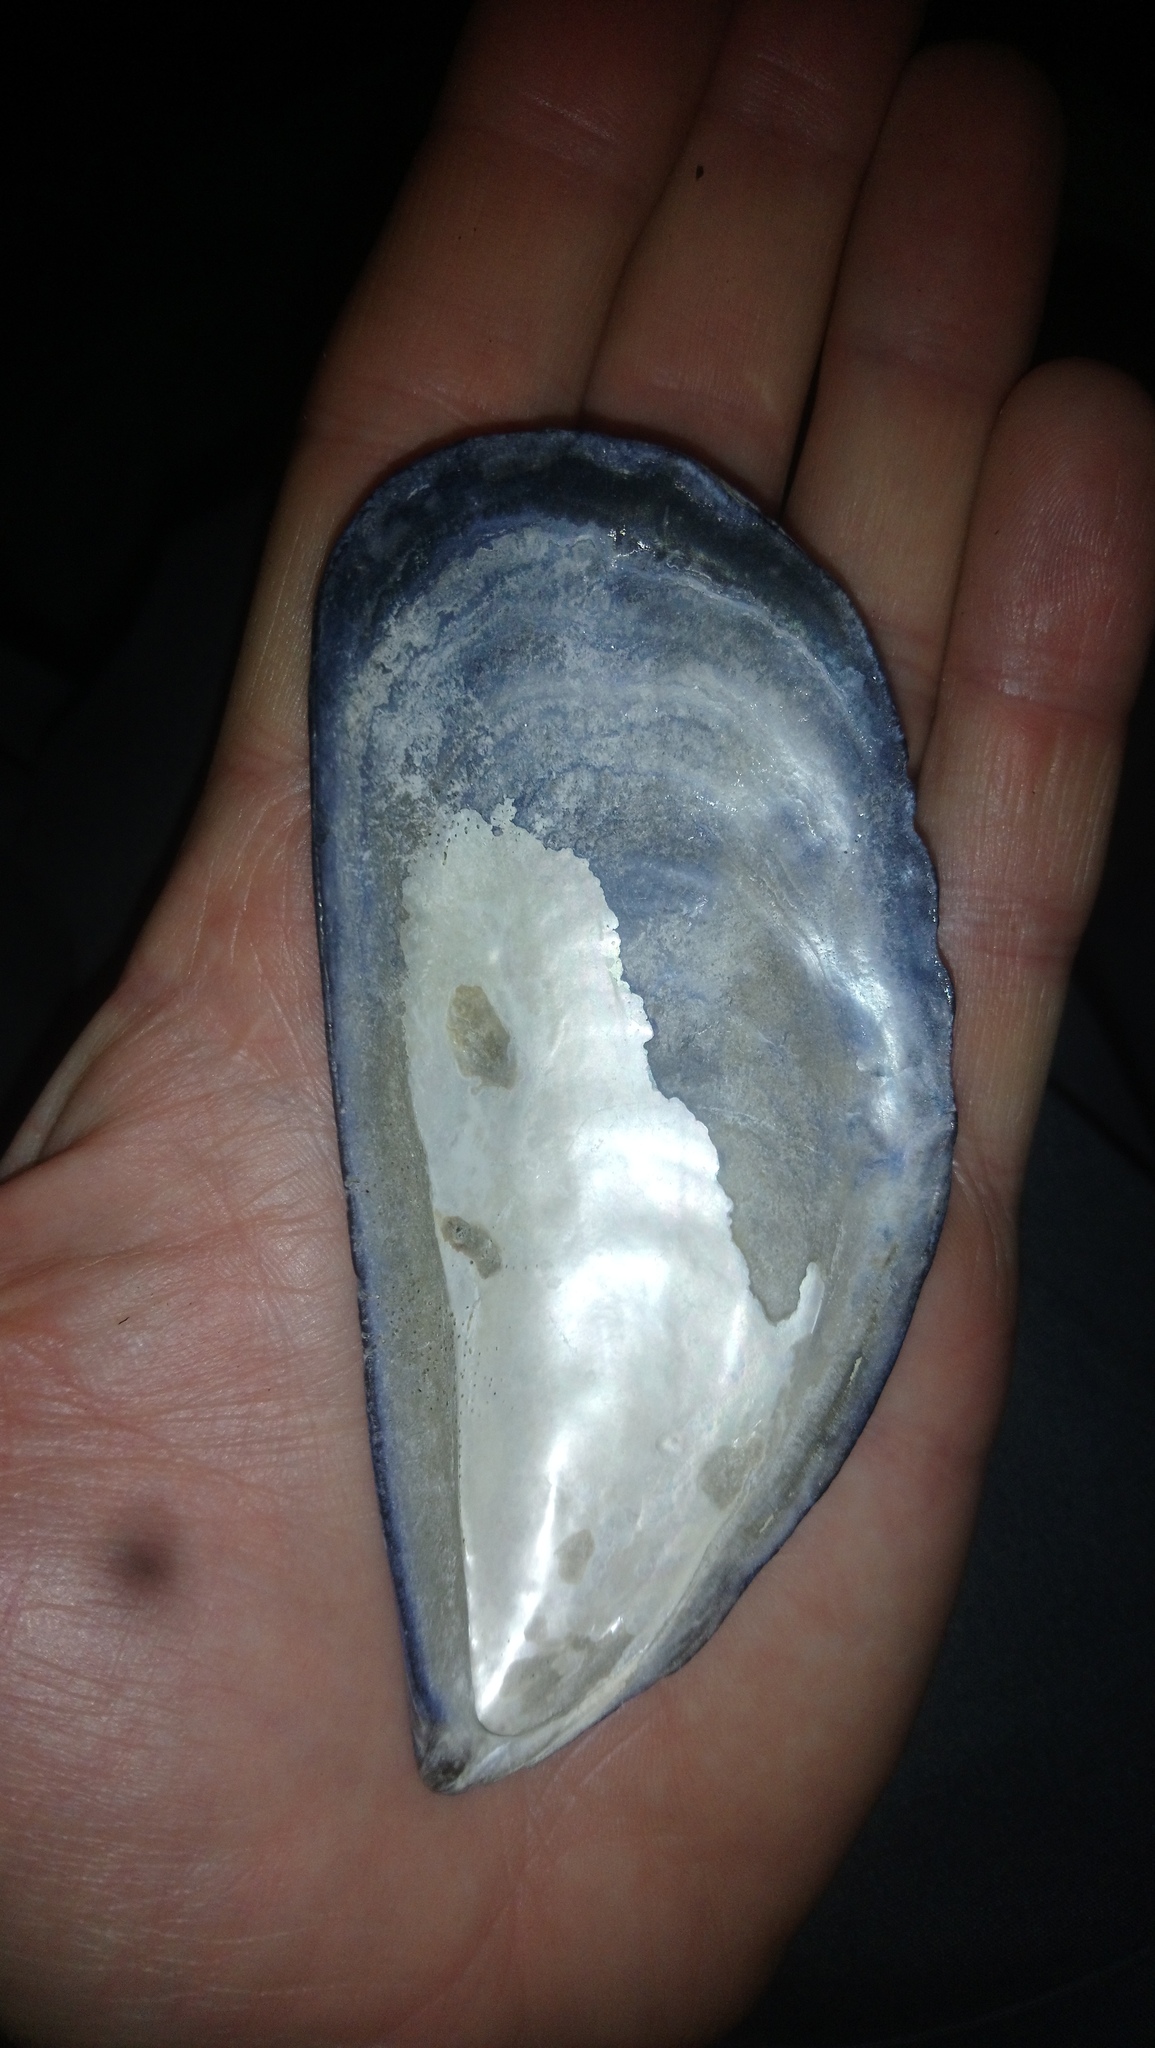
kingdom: Animalia
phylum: Mollusca
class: Bivalvia
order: Mytilida
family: Mytilidae
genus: Choromytilus
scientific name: Choromytilus chorus
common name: Chorus mussel
